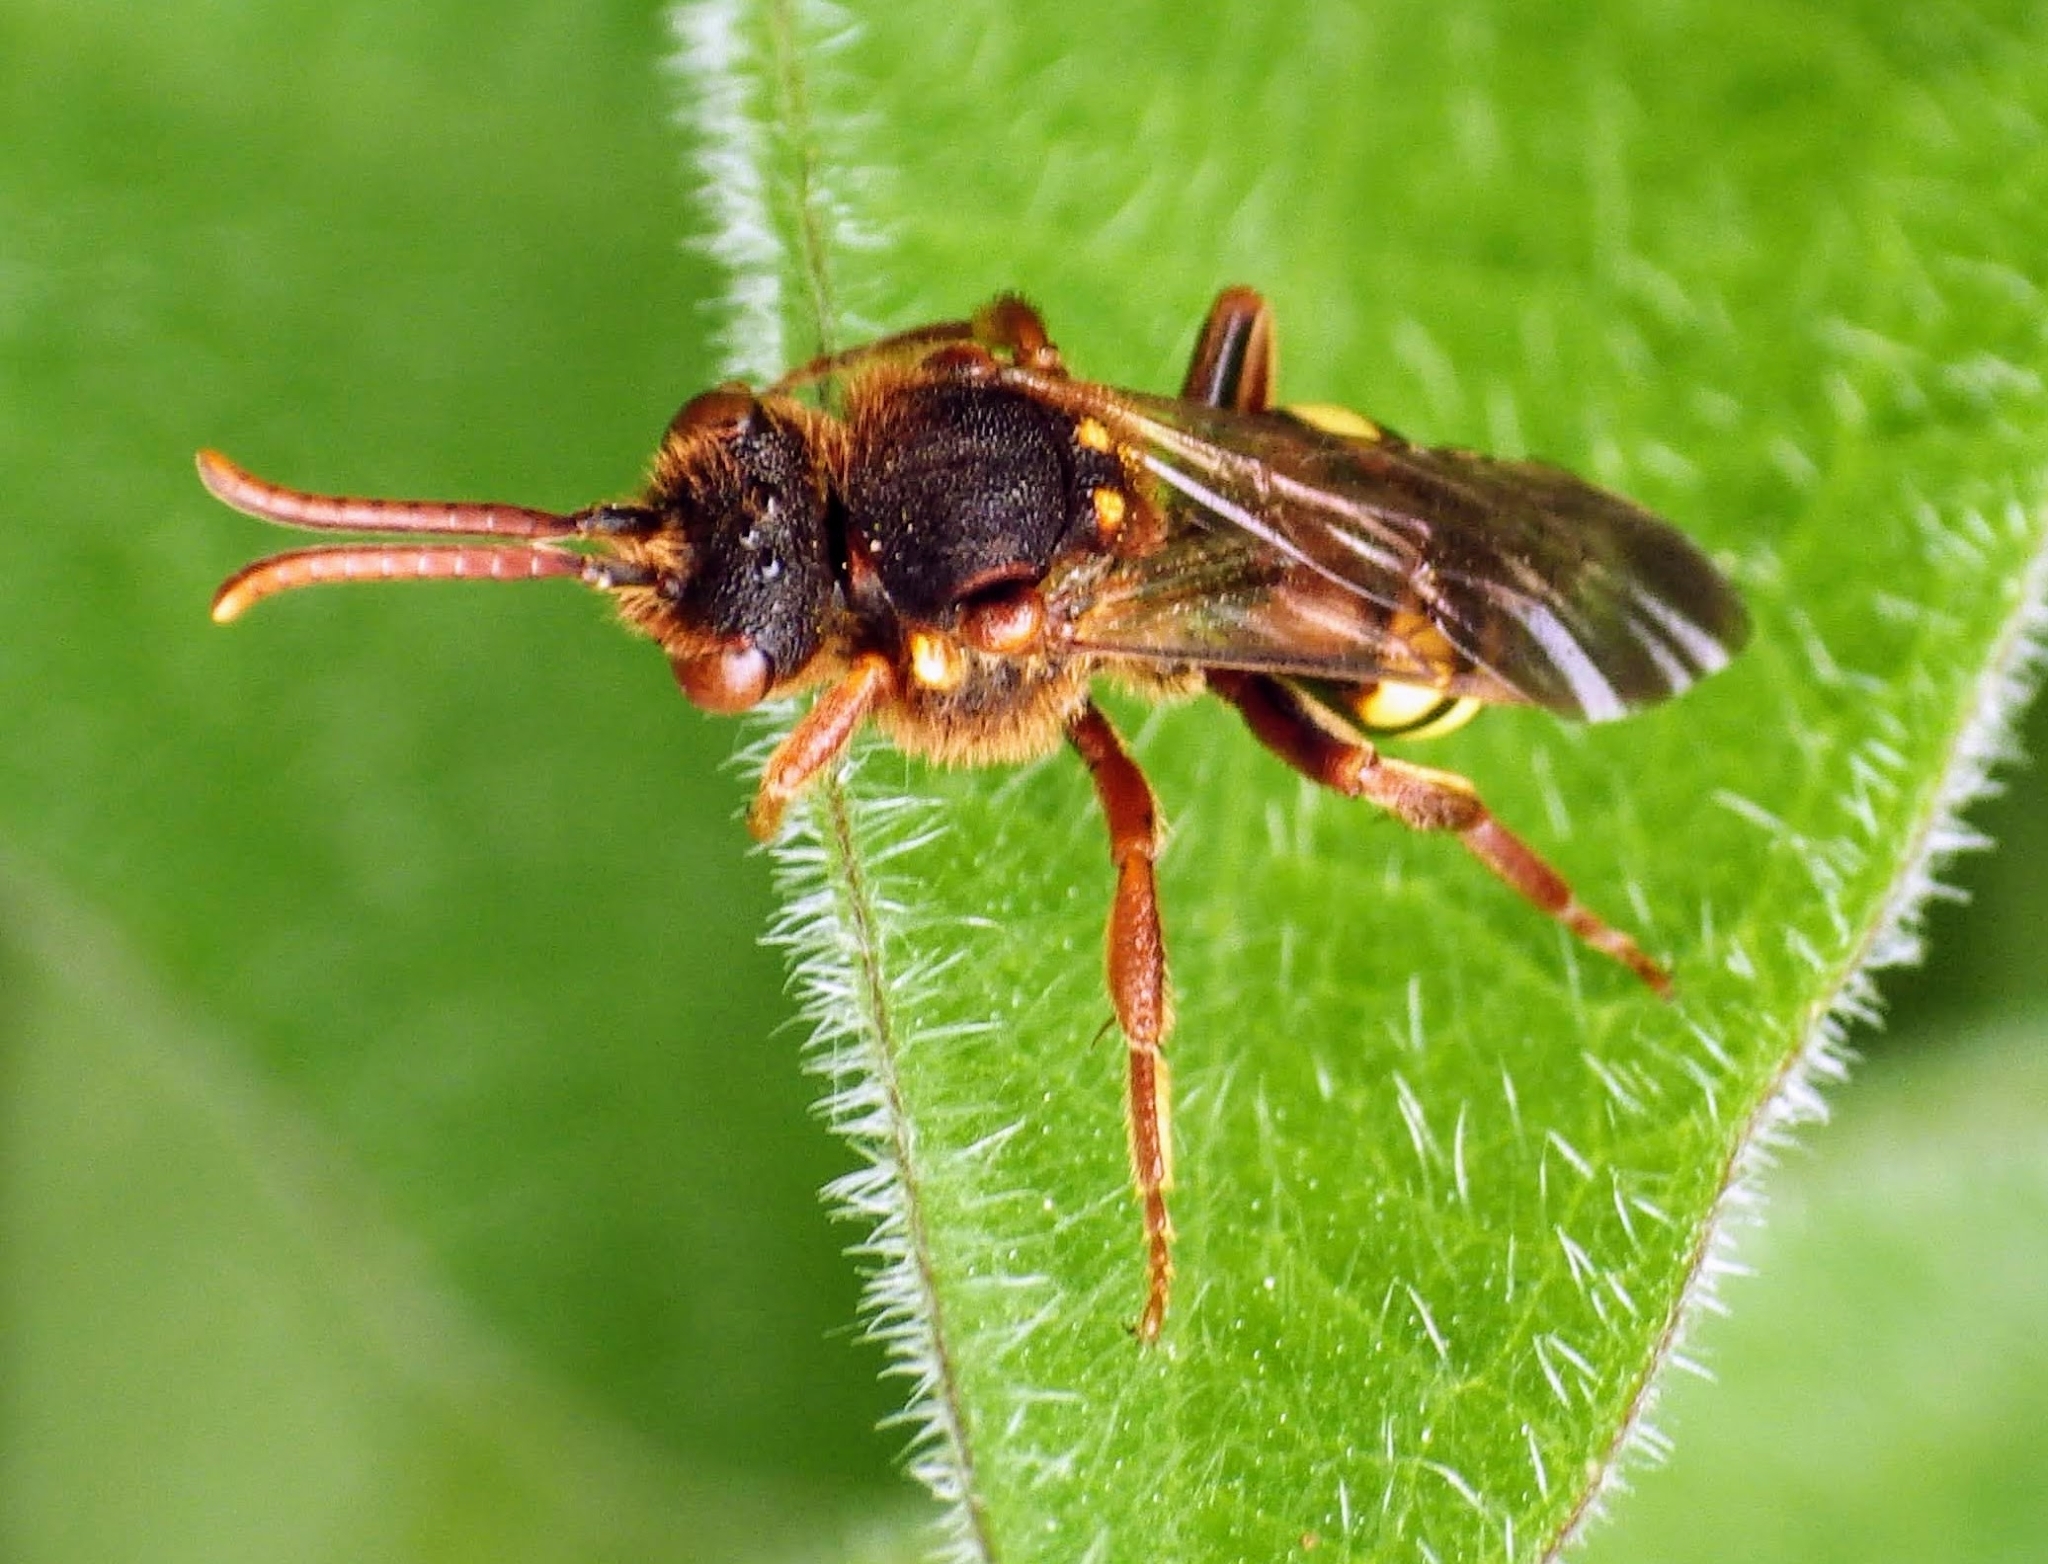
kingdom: Animalia
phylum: Arthropoda
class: Insecta
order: Hymenoptera
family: Apidae
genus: Nomada
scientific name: Nomada lathburiana
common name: Lathbury's nomad bee
